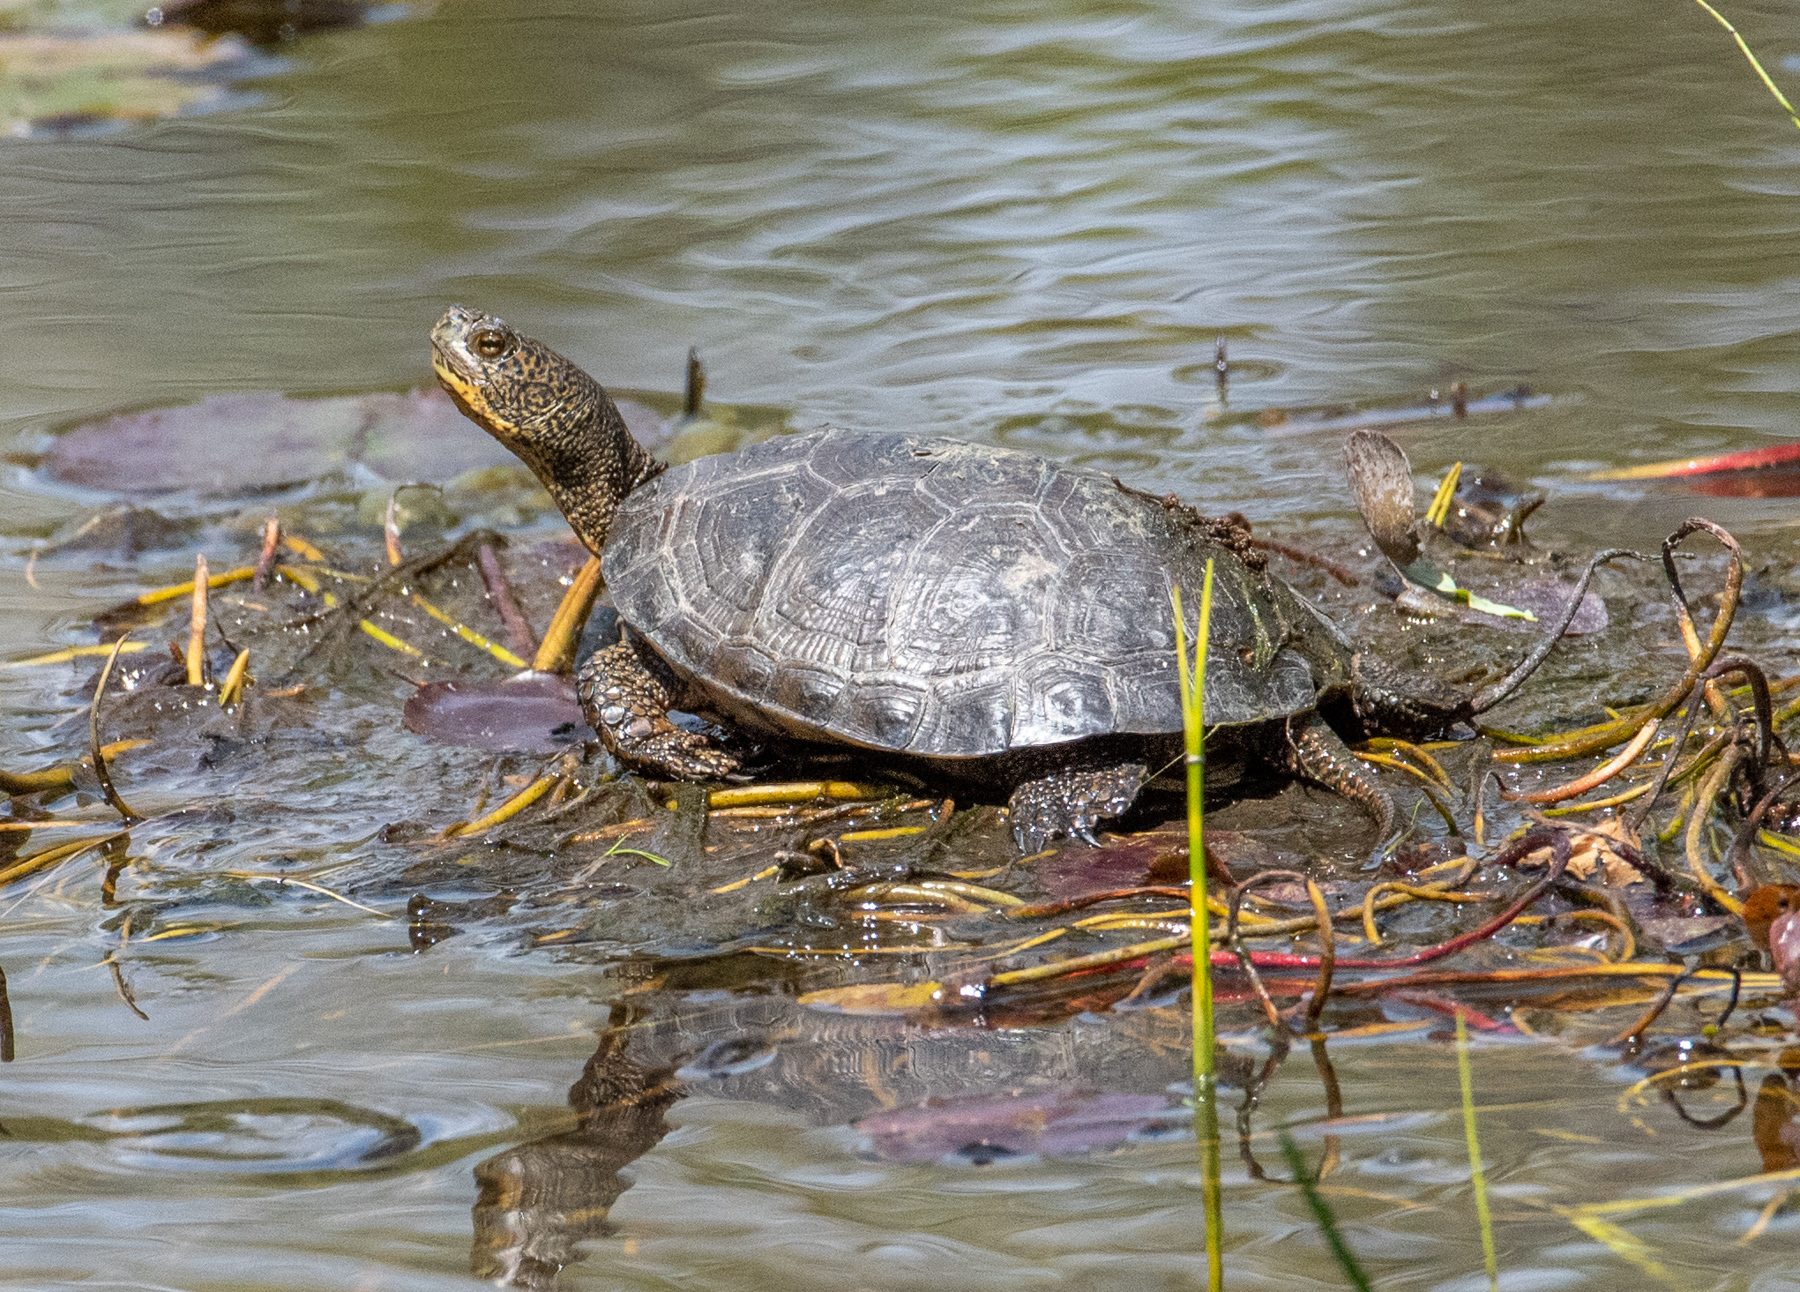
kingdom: Animalia
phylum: Chordata
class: Testudines
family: Emydidae
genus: Actinemys
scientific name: Actinemys marmorata
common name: Western pond turtle
